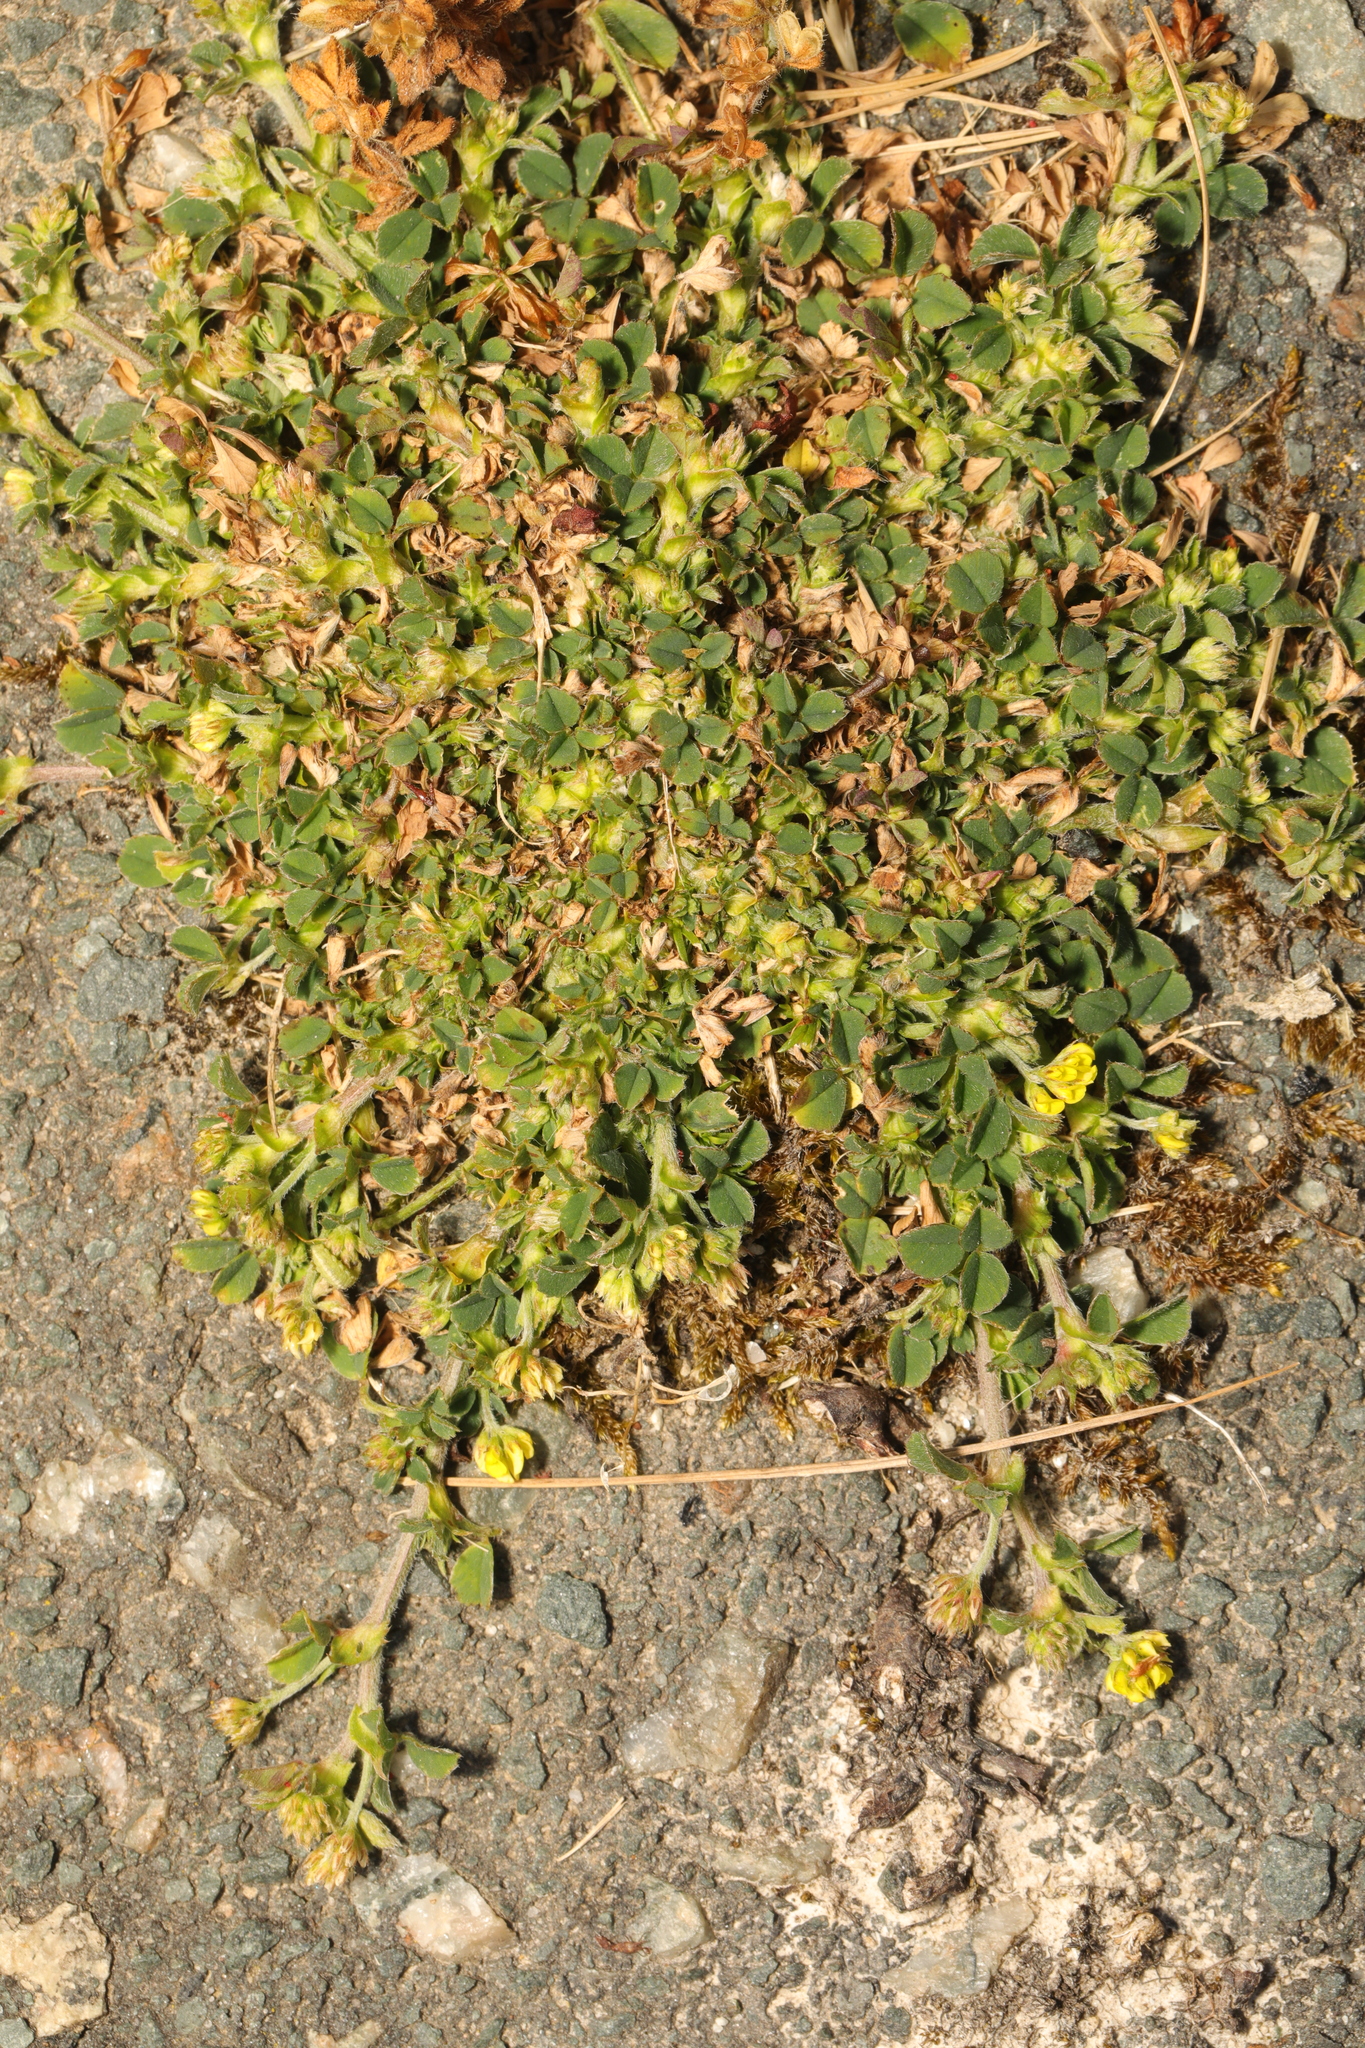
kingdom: Plantae
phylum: Tracheophyta
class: Magnoliopsida
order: Fabales
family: Fabaceae
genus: Medicago
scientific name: Medicago lupulina
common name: Black medick
